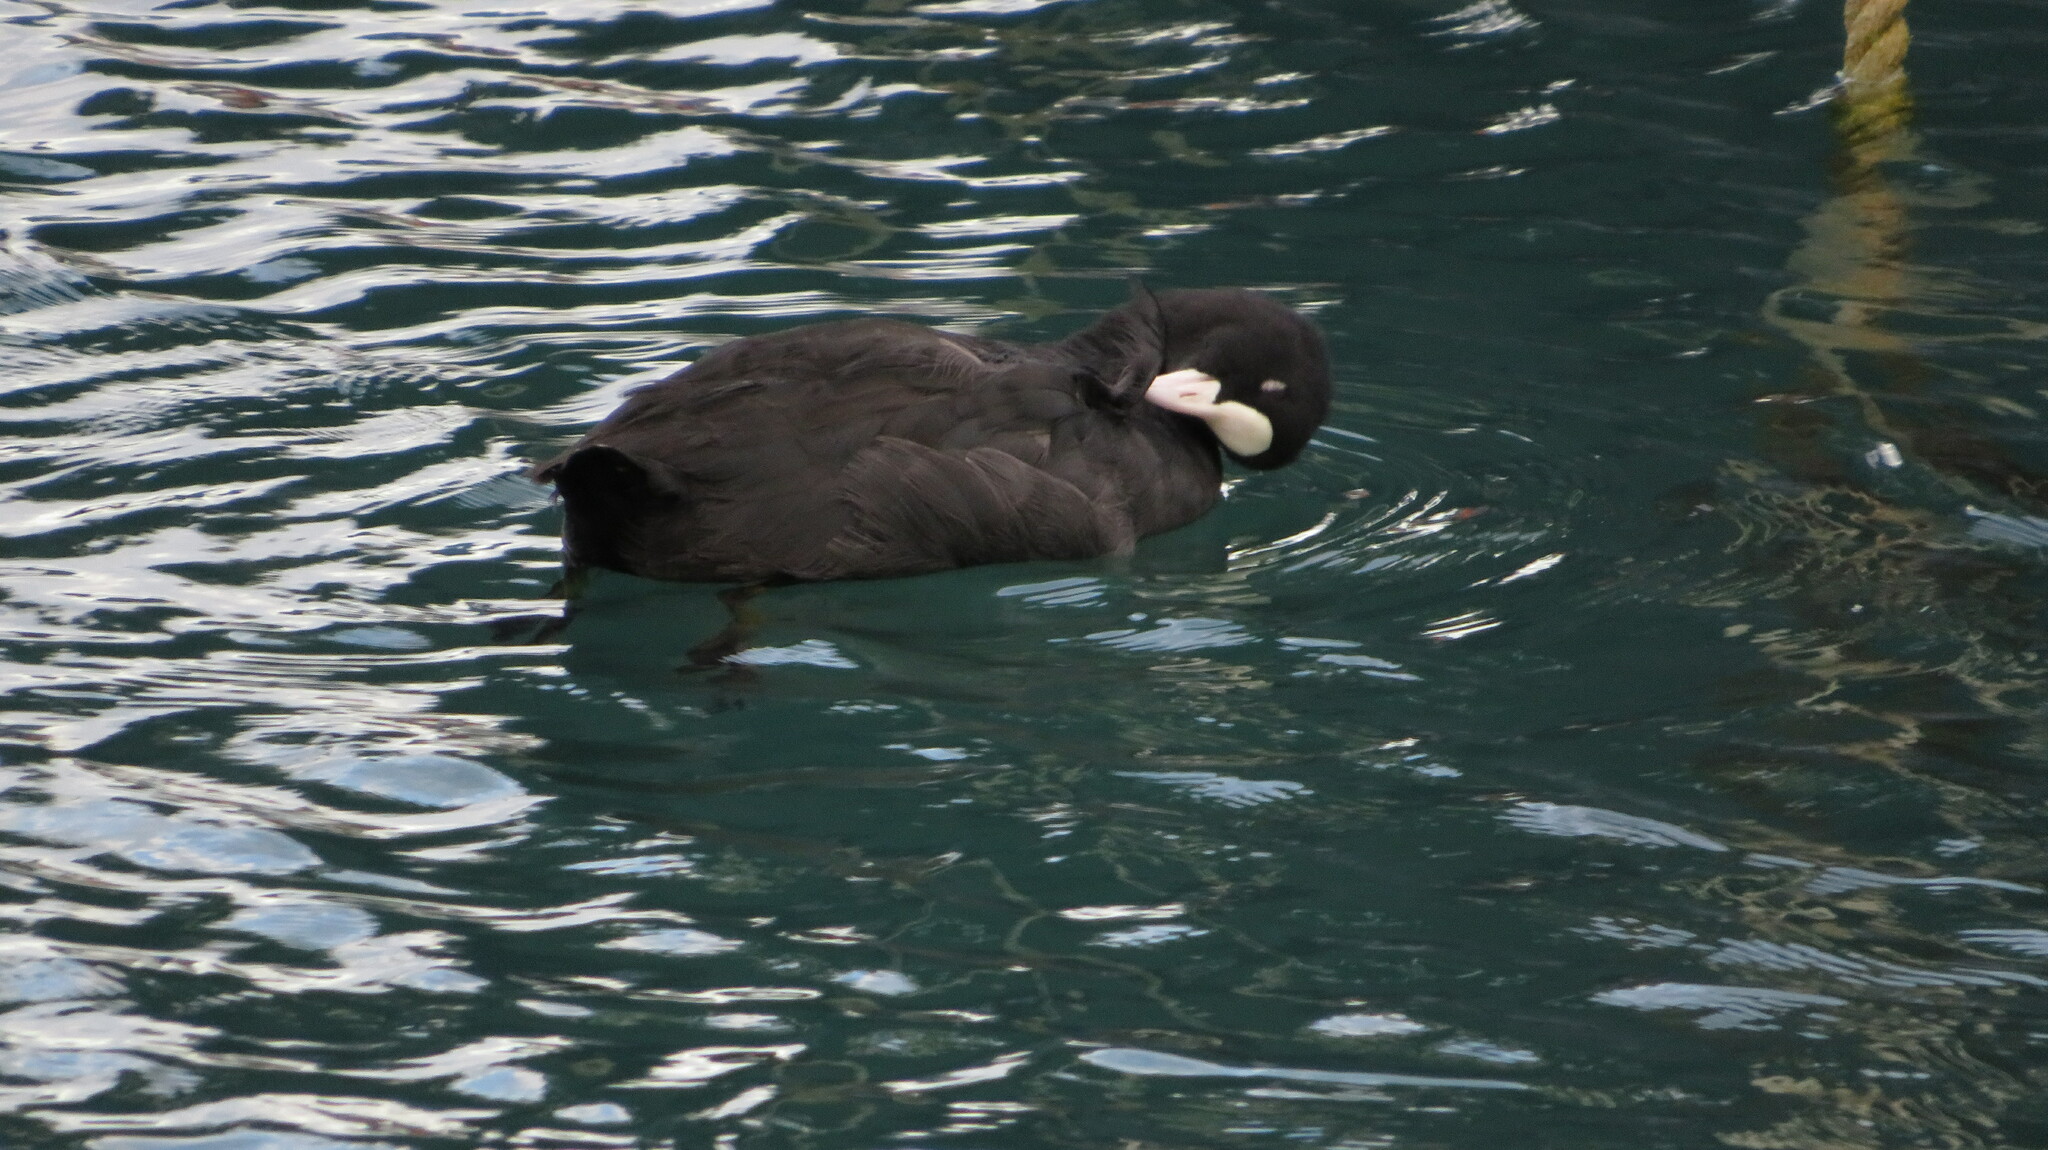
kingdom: Animalia
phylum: Chordata
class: Aves
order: Gruiformes
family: Rallidae
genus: Fulica
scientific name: Fulica atra
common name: Eurasian coot
